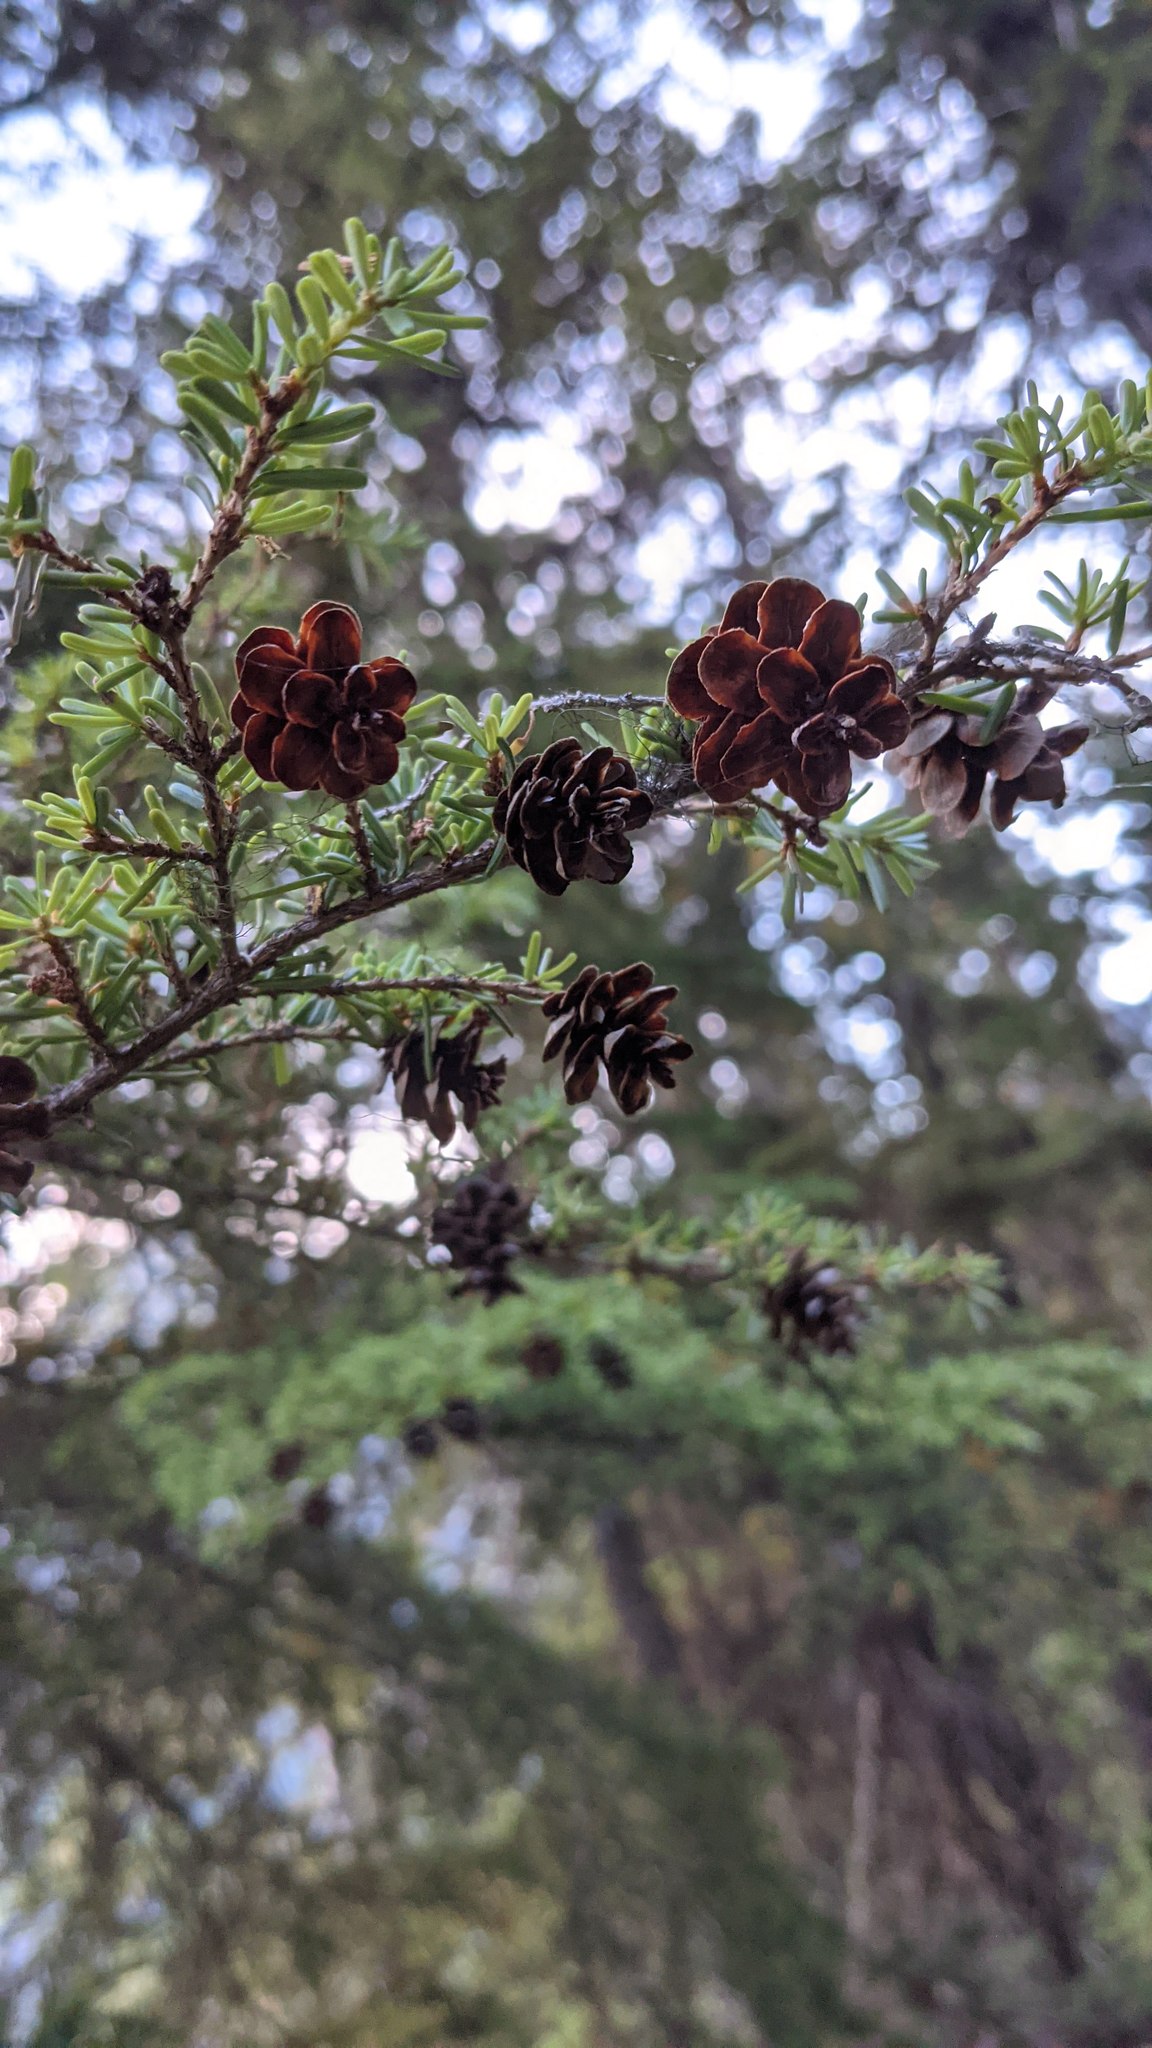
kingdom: Plantae
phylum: Tracheophyta
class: Pinopsida
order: Pinales
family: Pinaceae
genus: Tsuga
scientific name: Tsuga heterophylla
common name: Western hemlock
